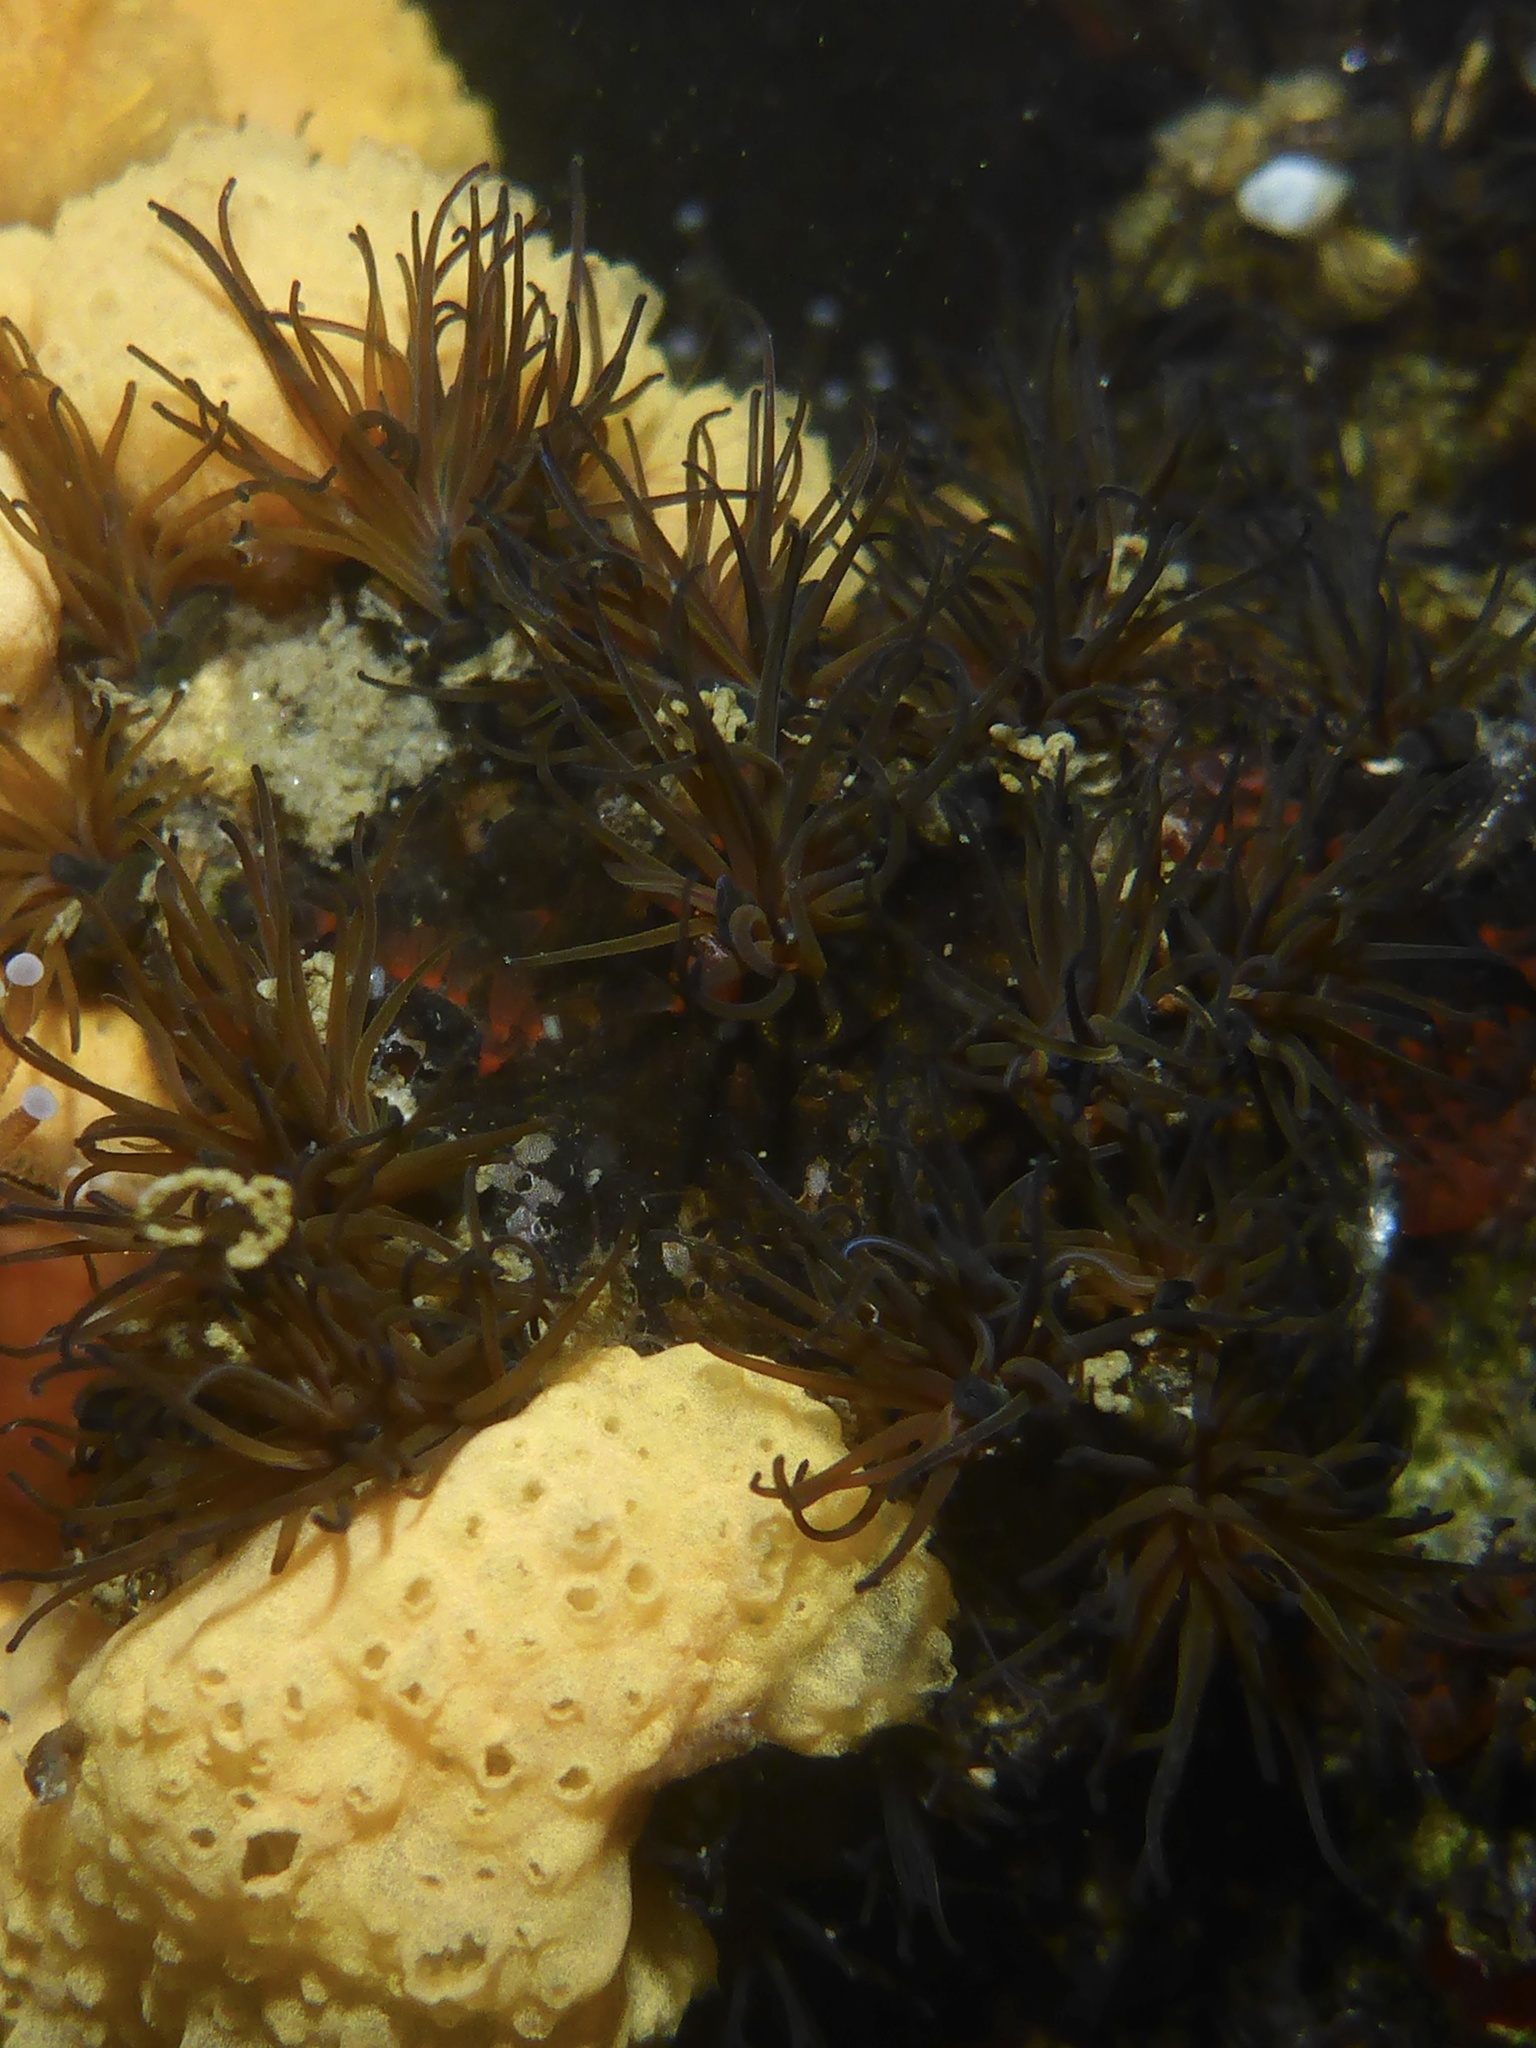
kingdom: Animalia
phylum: Annelida
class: Polychaeta
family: Cirratulidae
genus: Dodecaceria
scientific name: Dodecaceria pacifica
